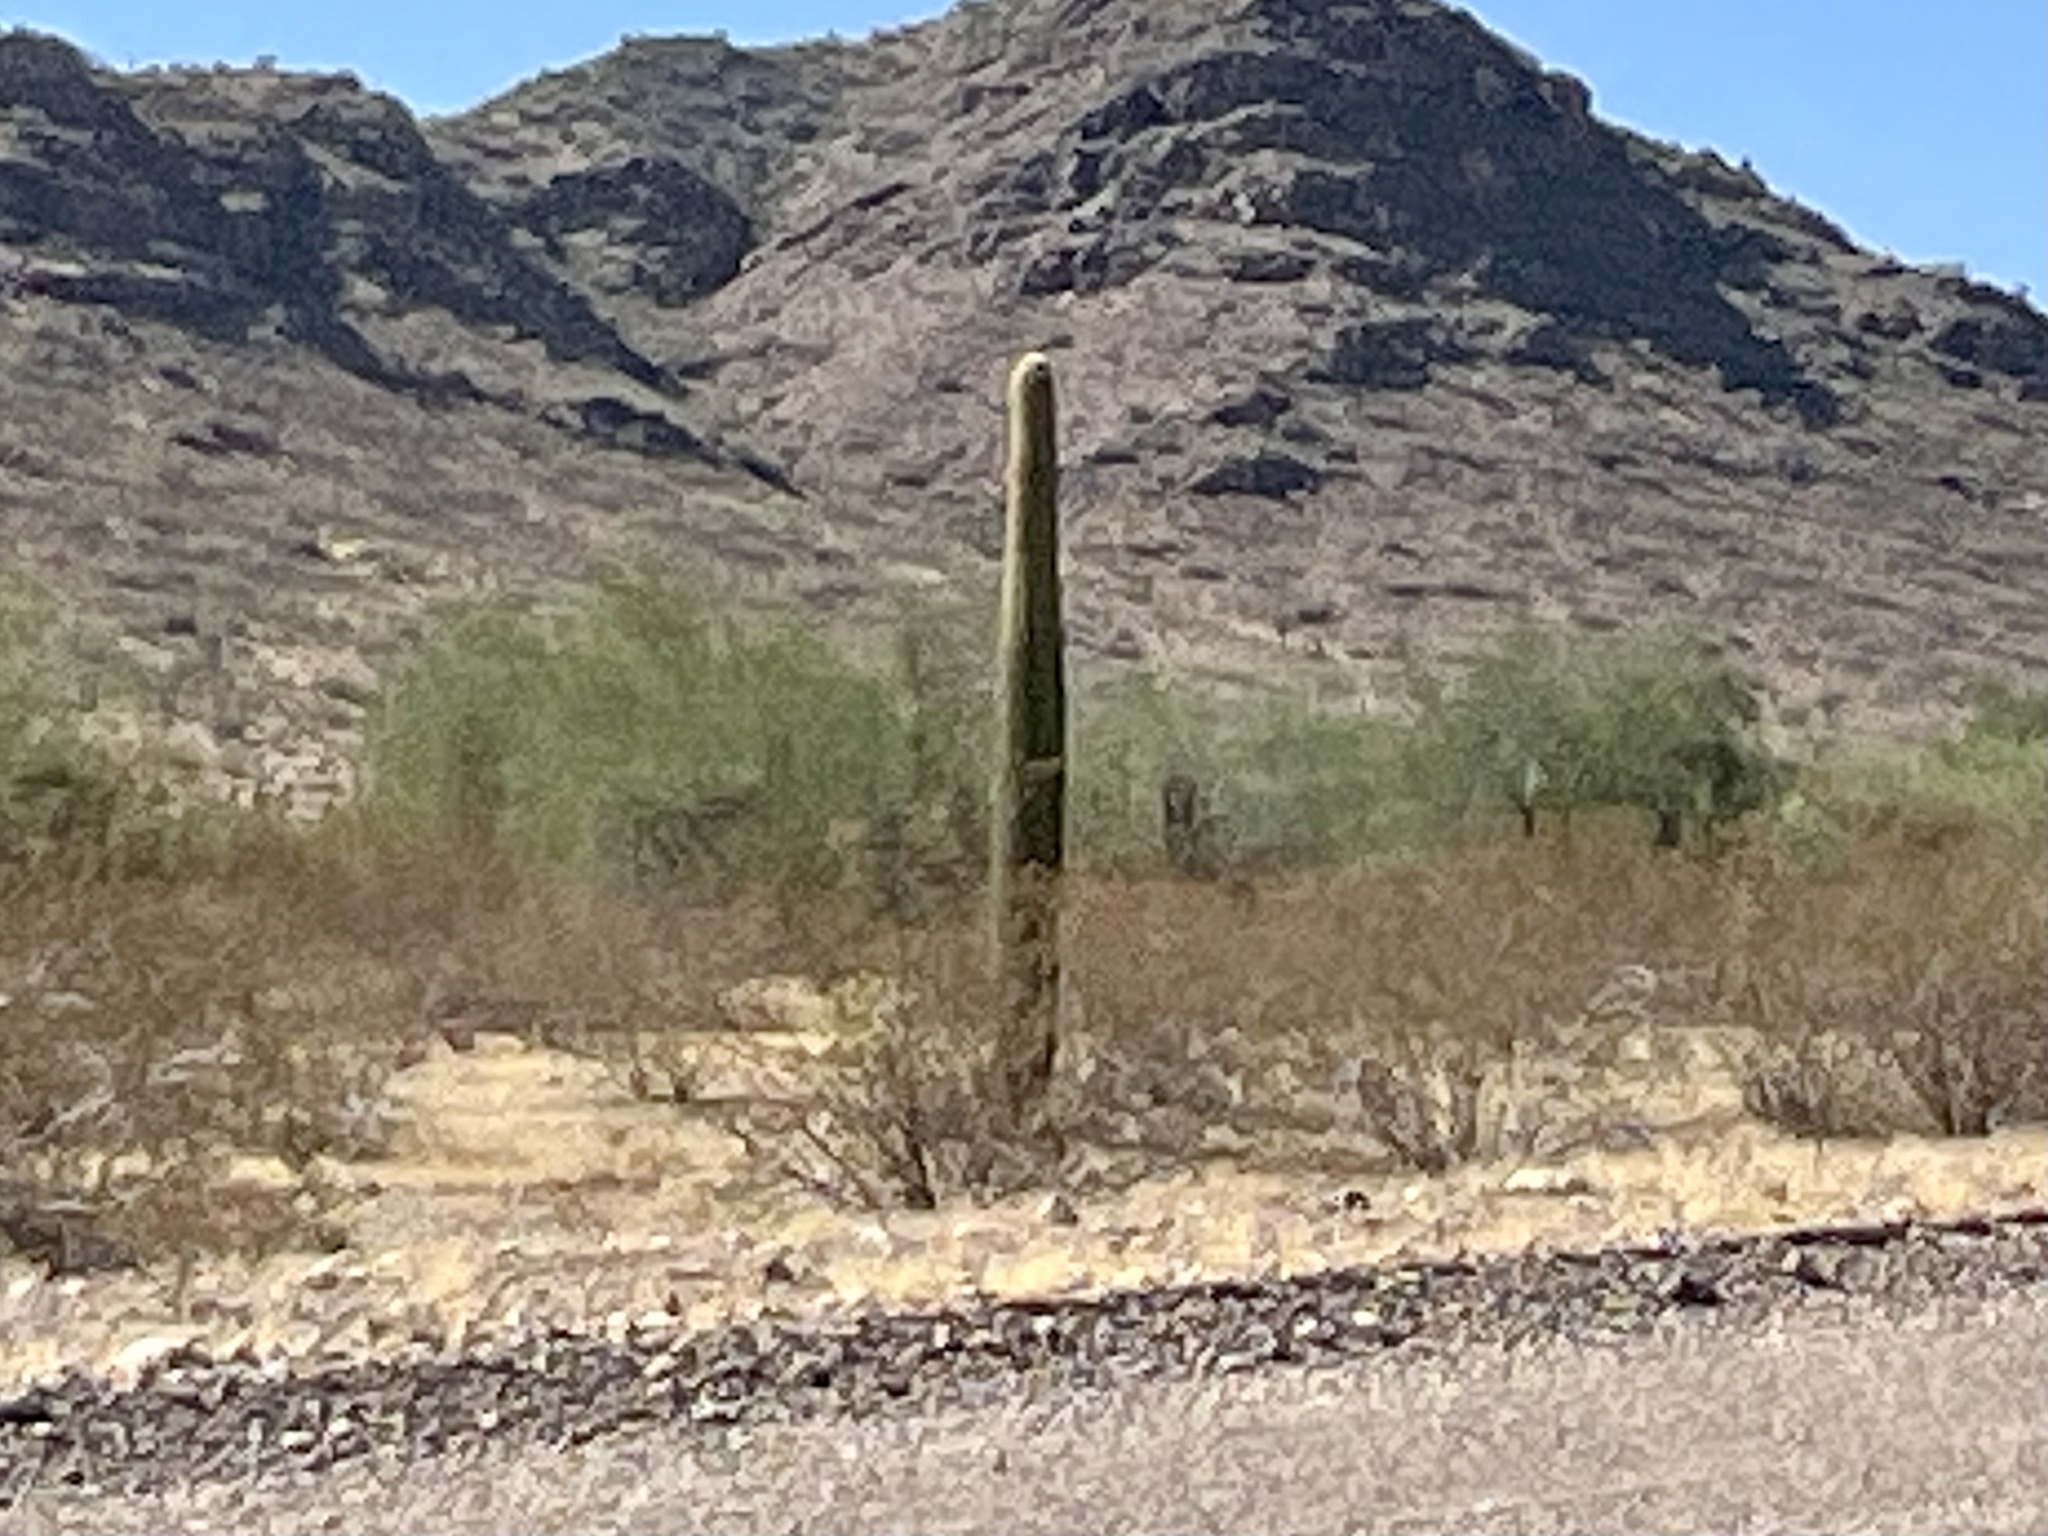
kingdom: Plantae
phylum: Tracheophyta
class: Magnoliopsida
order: Caryophyllales
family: Cactaceae
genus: Carnegiea
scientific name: Carnegiea gigantea
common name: Saguaro
